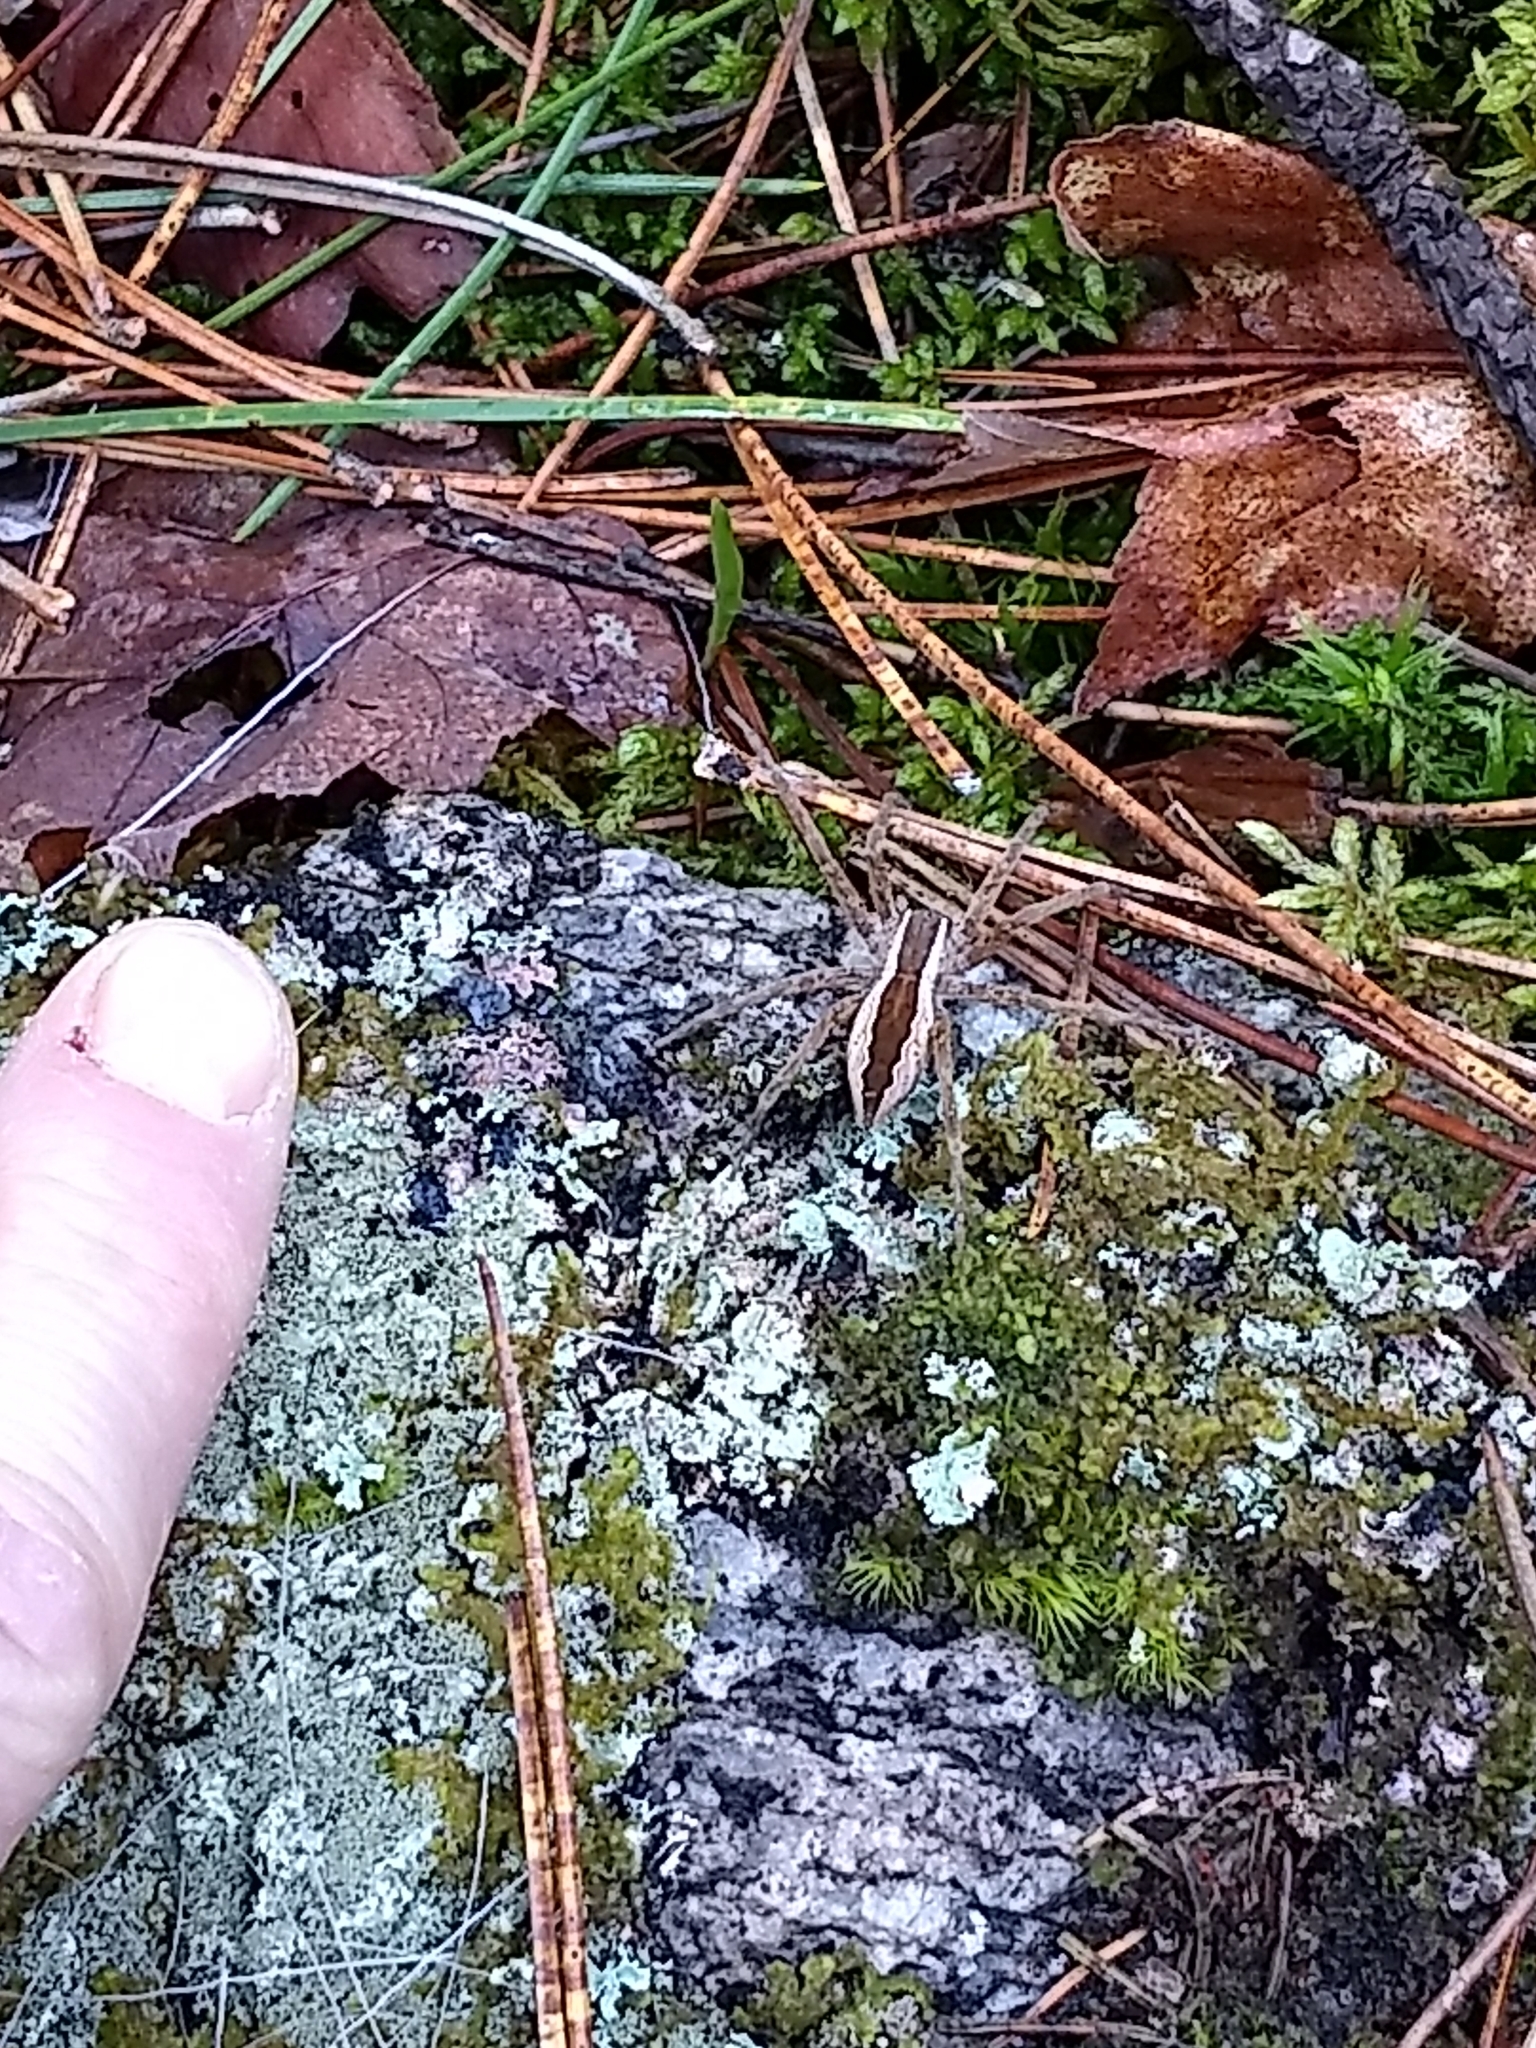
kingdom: Animalia
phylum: Arthropoda
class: Arachnida
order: Araneae
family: Pisauridae
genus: Pisaurina
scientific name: Pisaurina mira
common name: American nursery web spider
